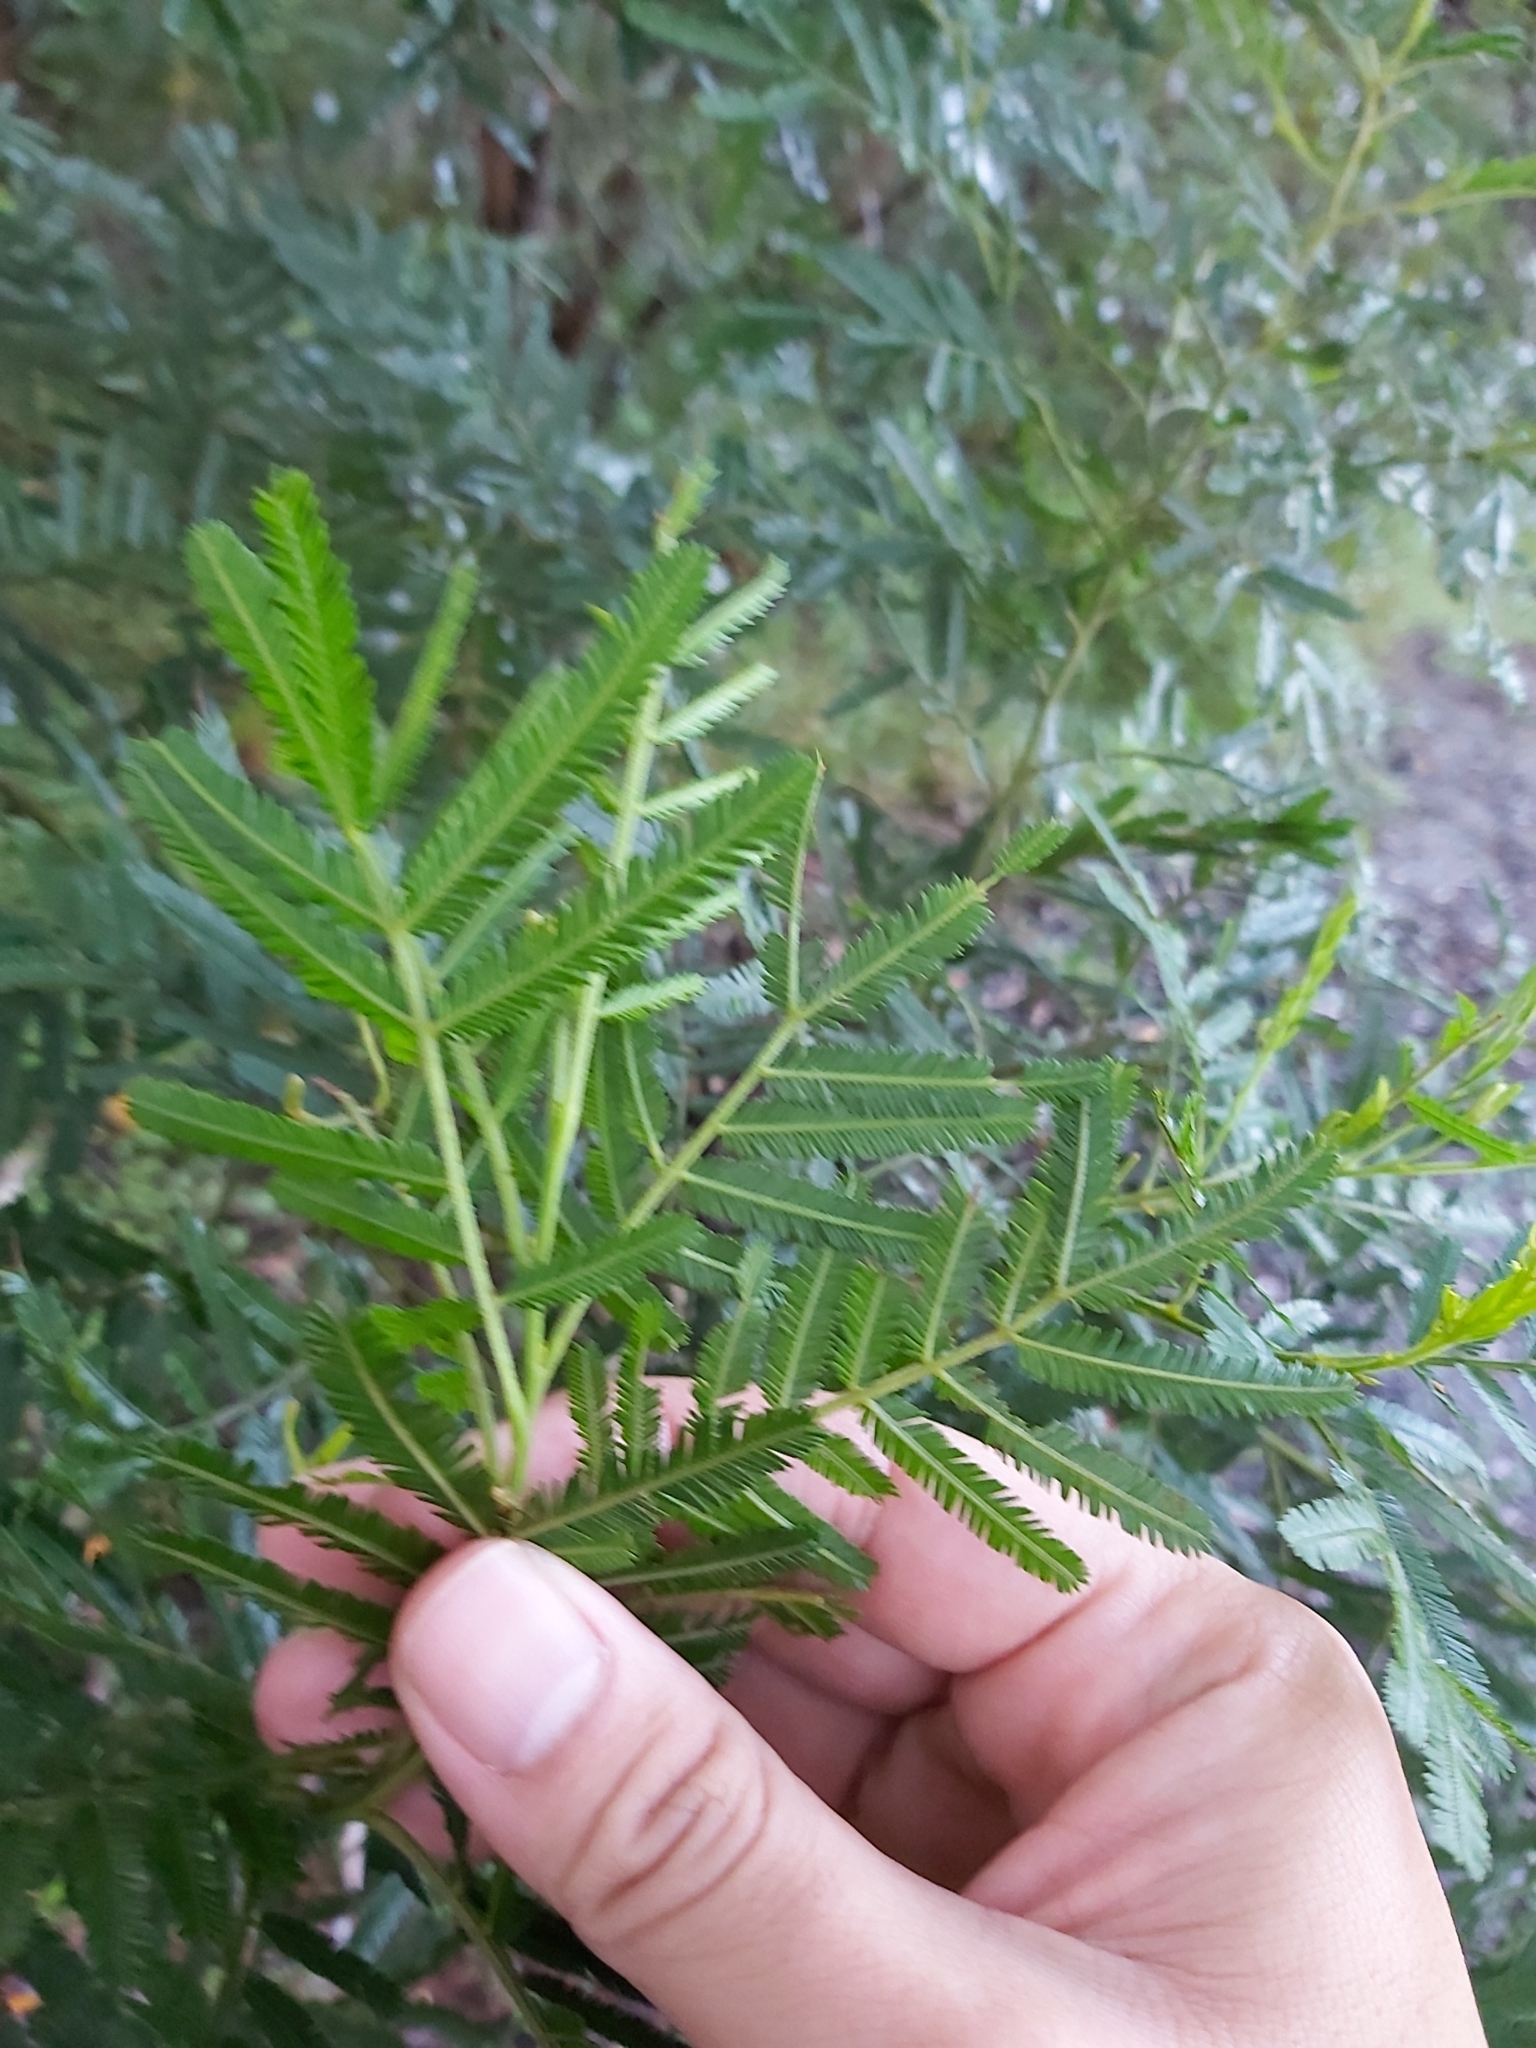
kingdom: Plantae
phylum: Tracheophyta
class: Magnoliopsida
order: Fabales
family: Fabaceae
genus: Acacia
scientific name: Acacia irrorata
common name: Green wattle
